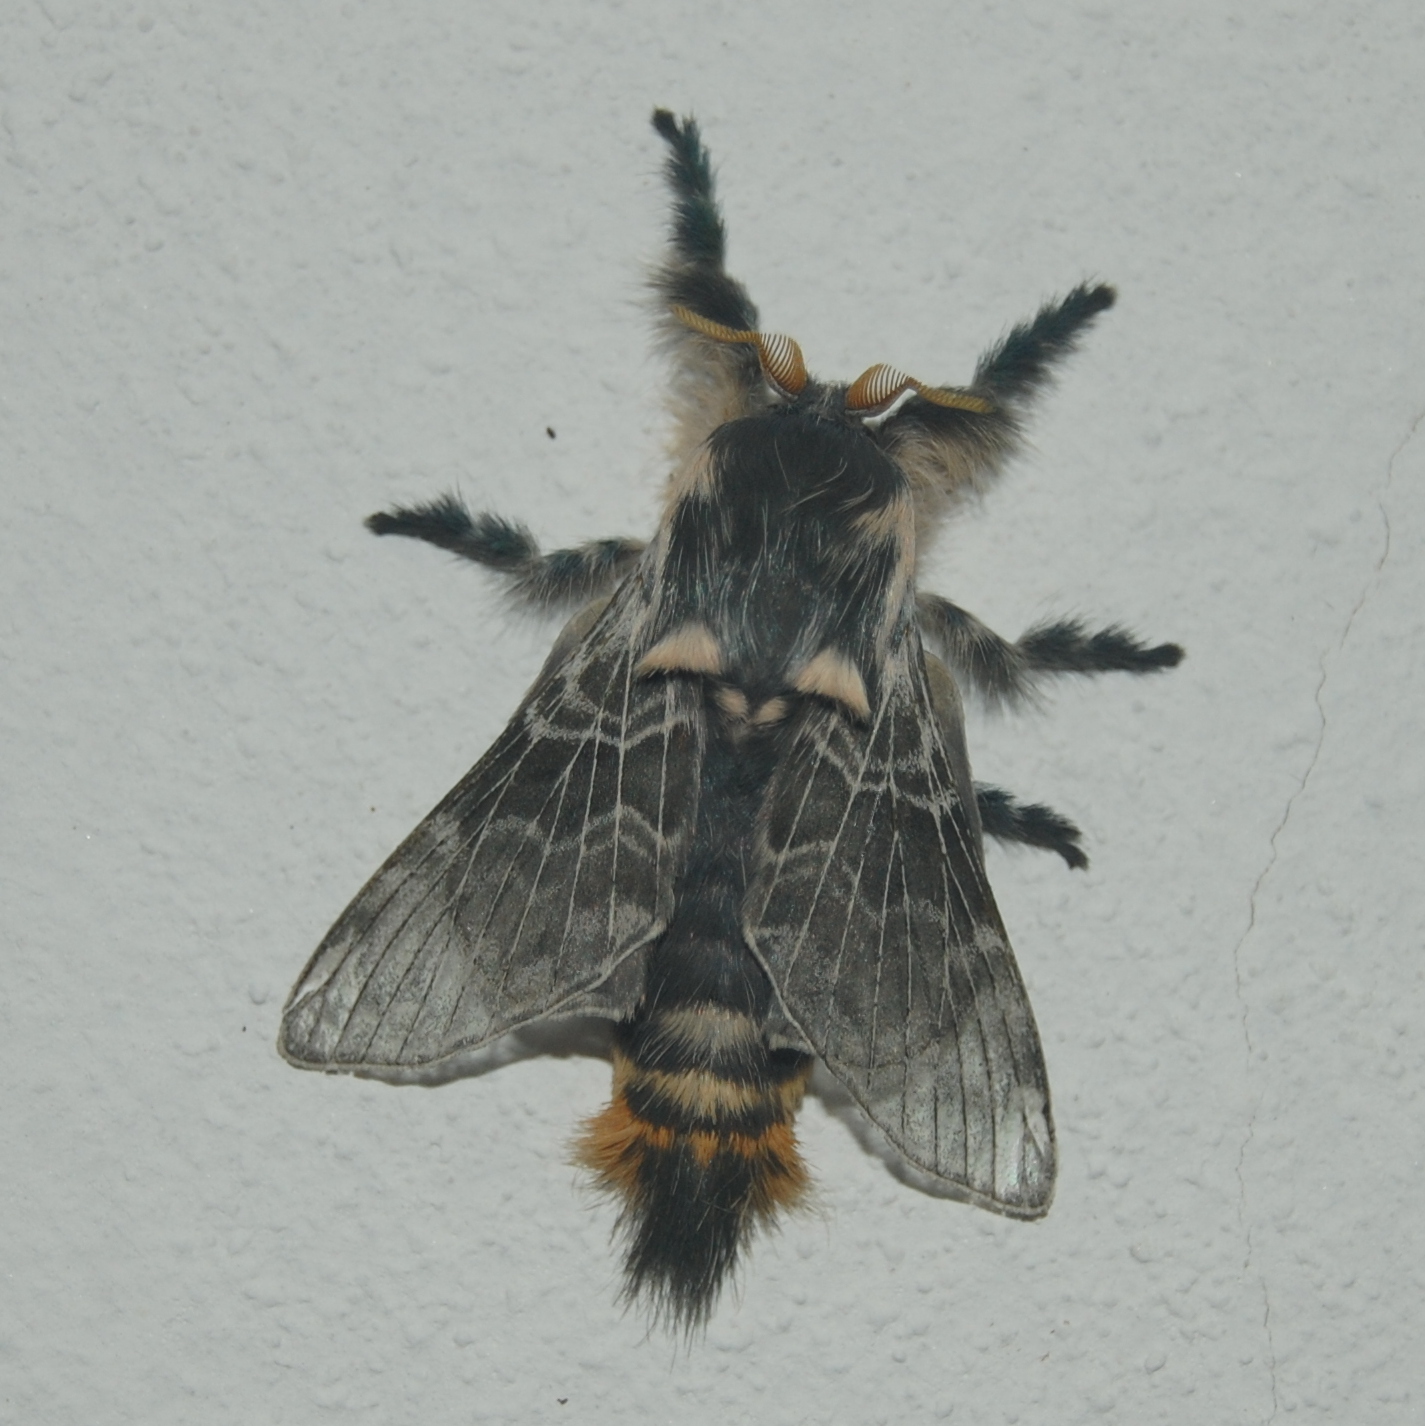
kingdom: Animalia
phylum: Arthropoda
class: Insecta
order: Lepidoptera
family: Lasiocampidae
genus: Labedera
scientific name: Labedera
